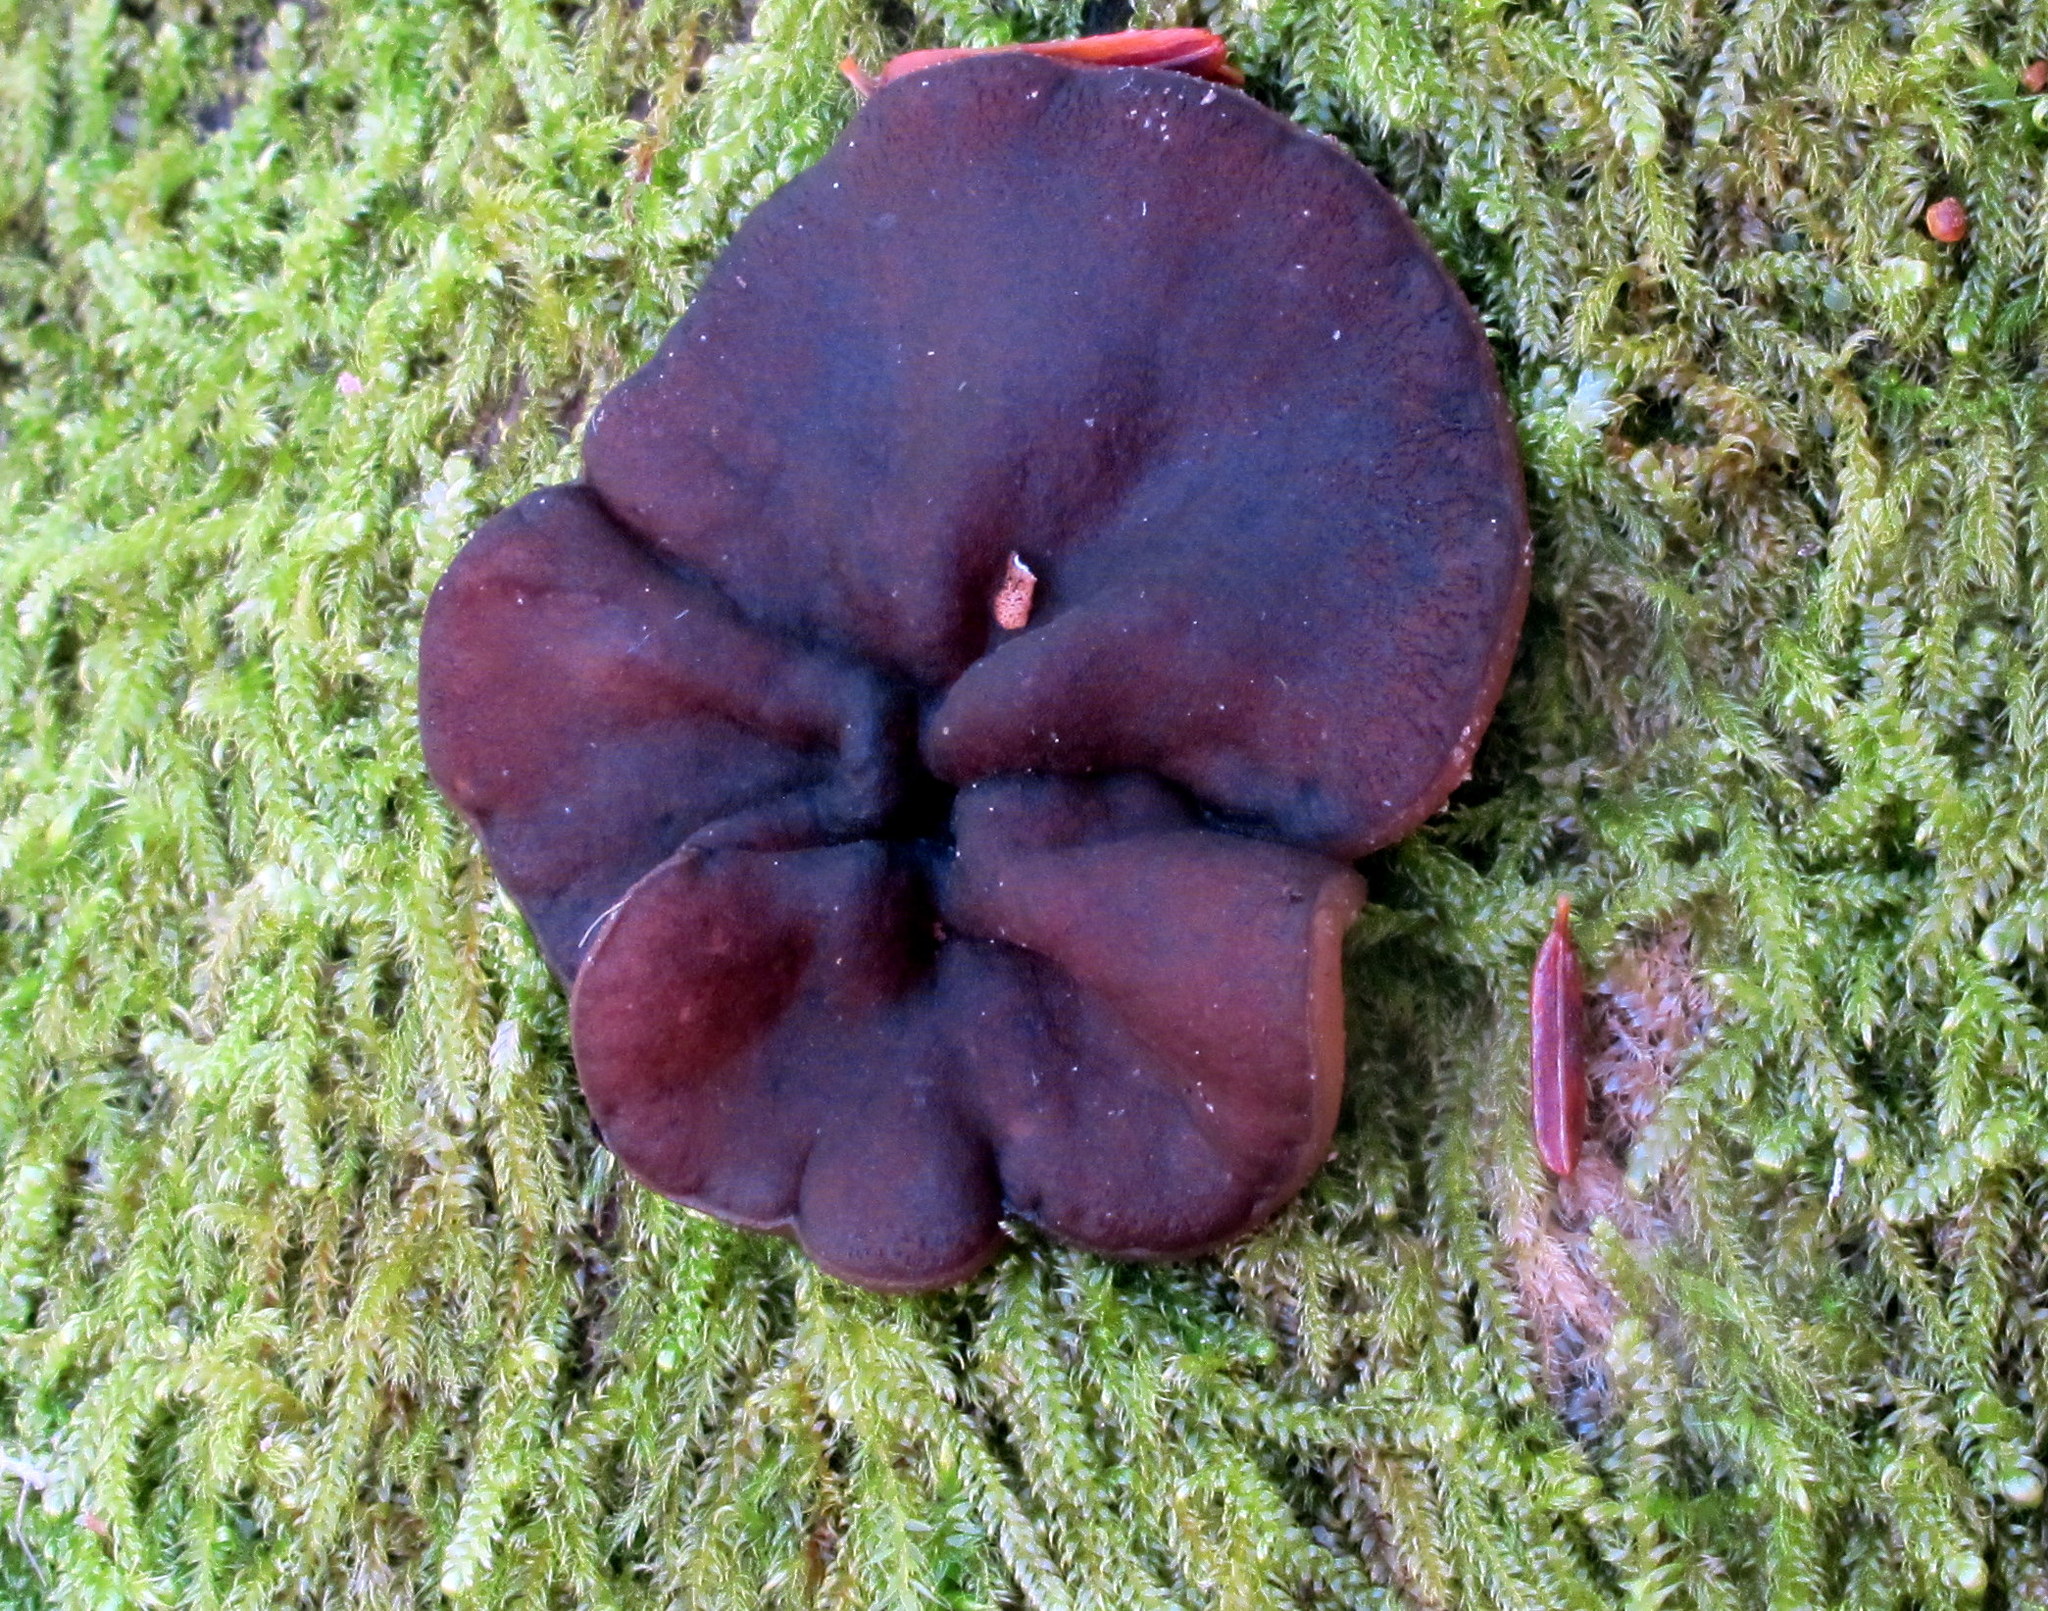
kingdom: Fungi
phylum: Ascomycota
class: Pezizomycetes
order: Pezizales
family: Pezizaceae
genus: Pachyella
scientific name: Pachyella clypeata
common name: Copper penny fungus
